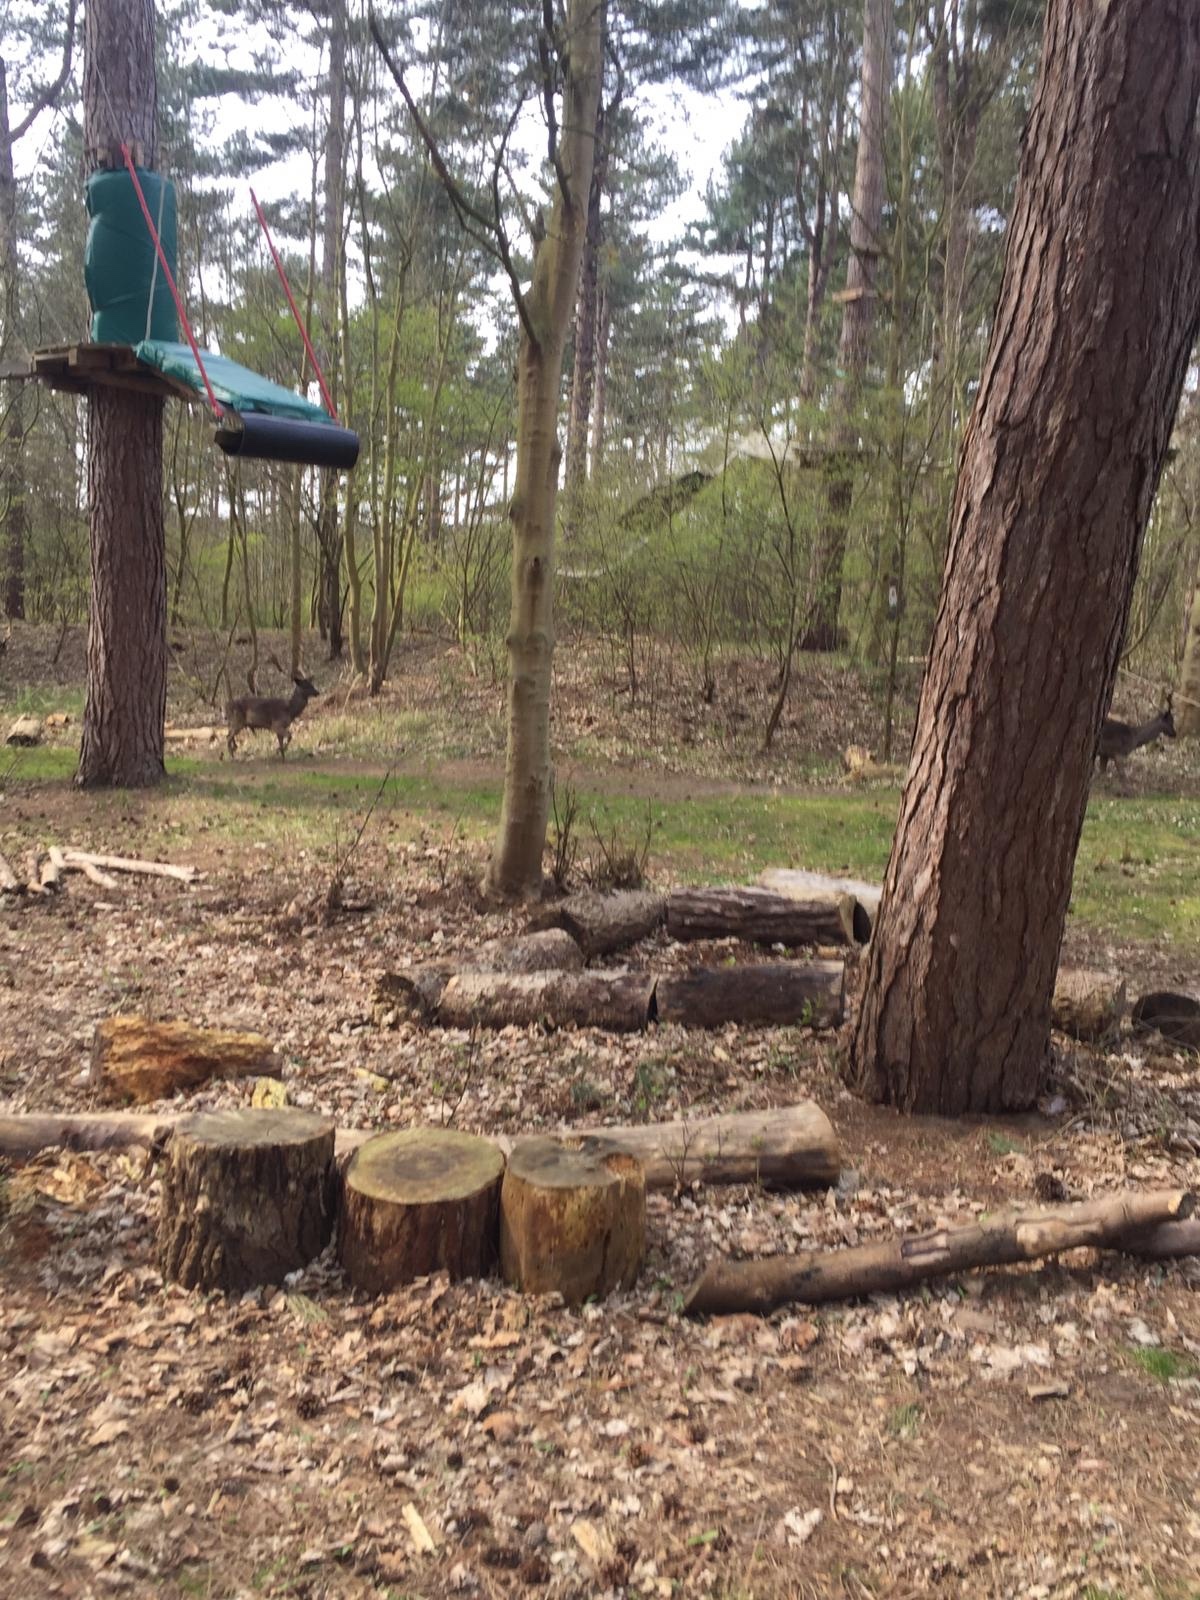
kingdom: Animalia
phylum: Chordata
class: Mammalia
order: Artiodactyla
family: Cervidae
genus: Dama
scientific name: Dama dama
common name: Fallow deer
